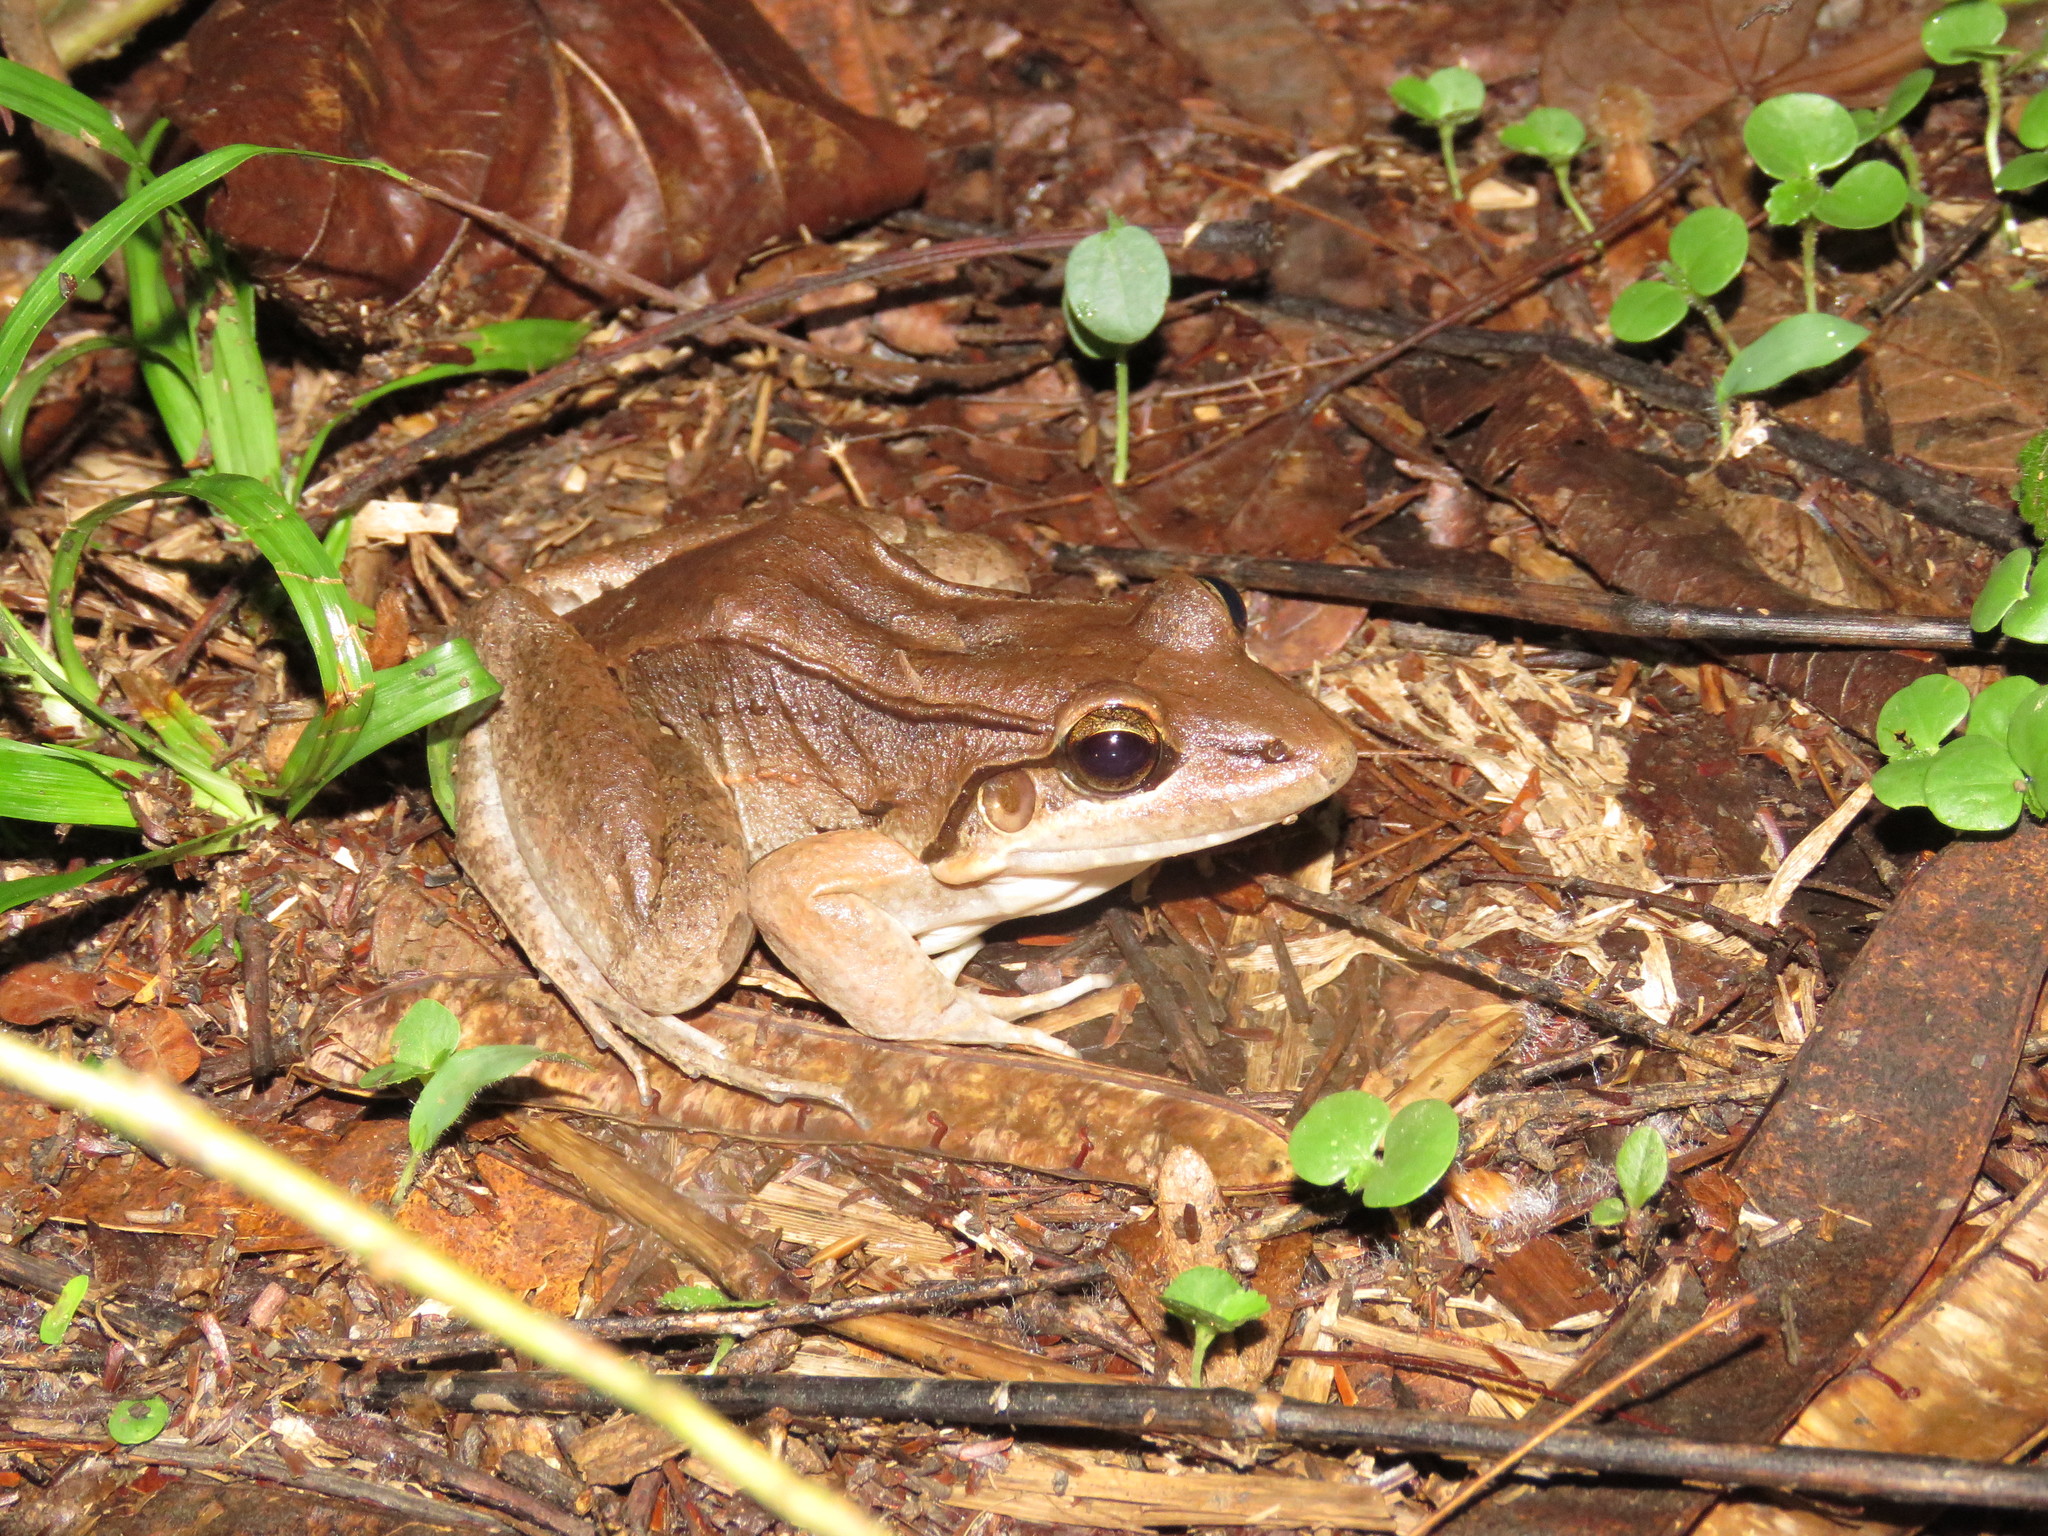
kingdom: Animalia
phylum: Chordata
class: Amphibia
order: Anura
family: Leptodactylidae
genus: Leptodactylus
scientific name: Leptodactylus bolivianus
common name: Bolivian white-lipped frog
